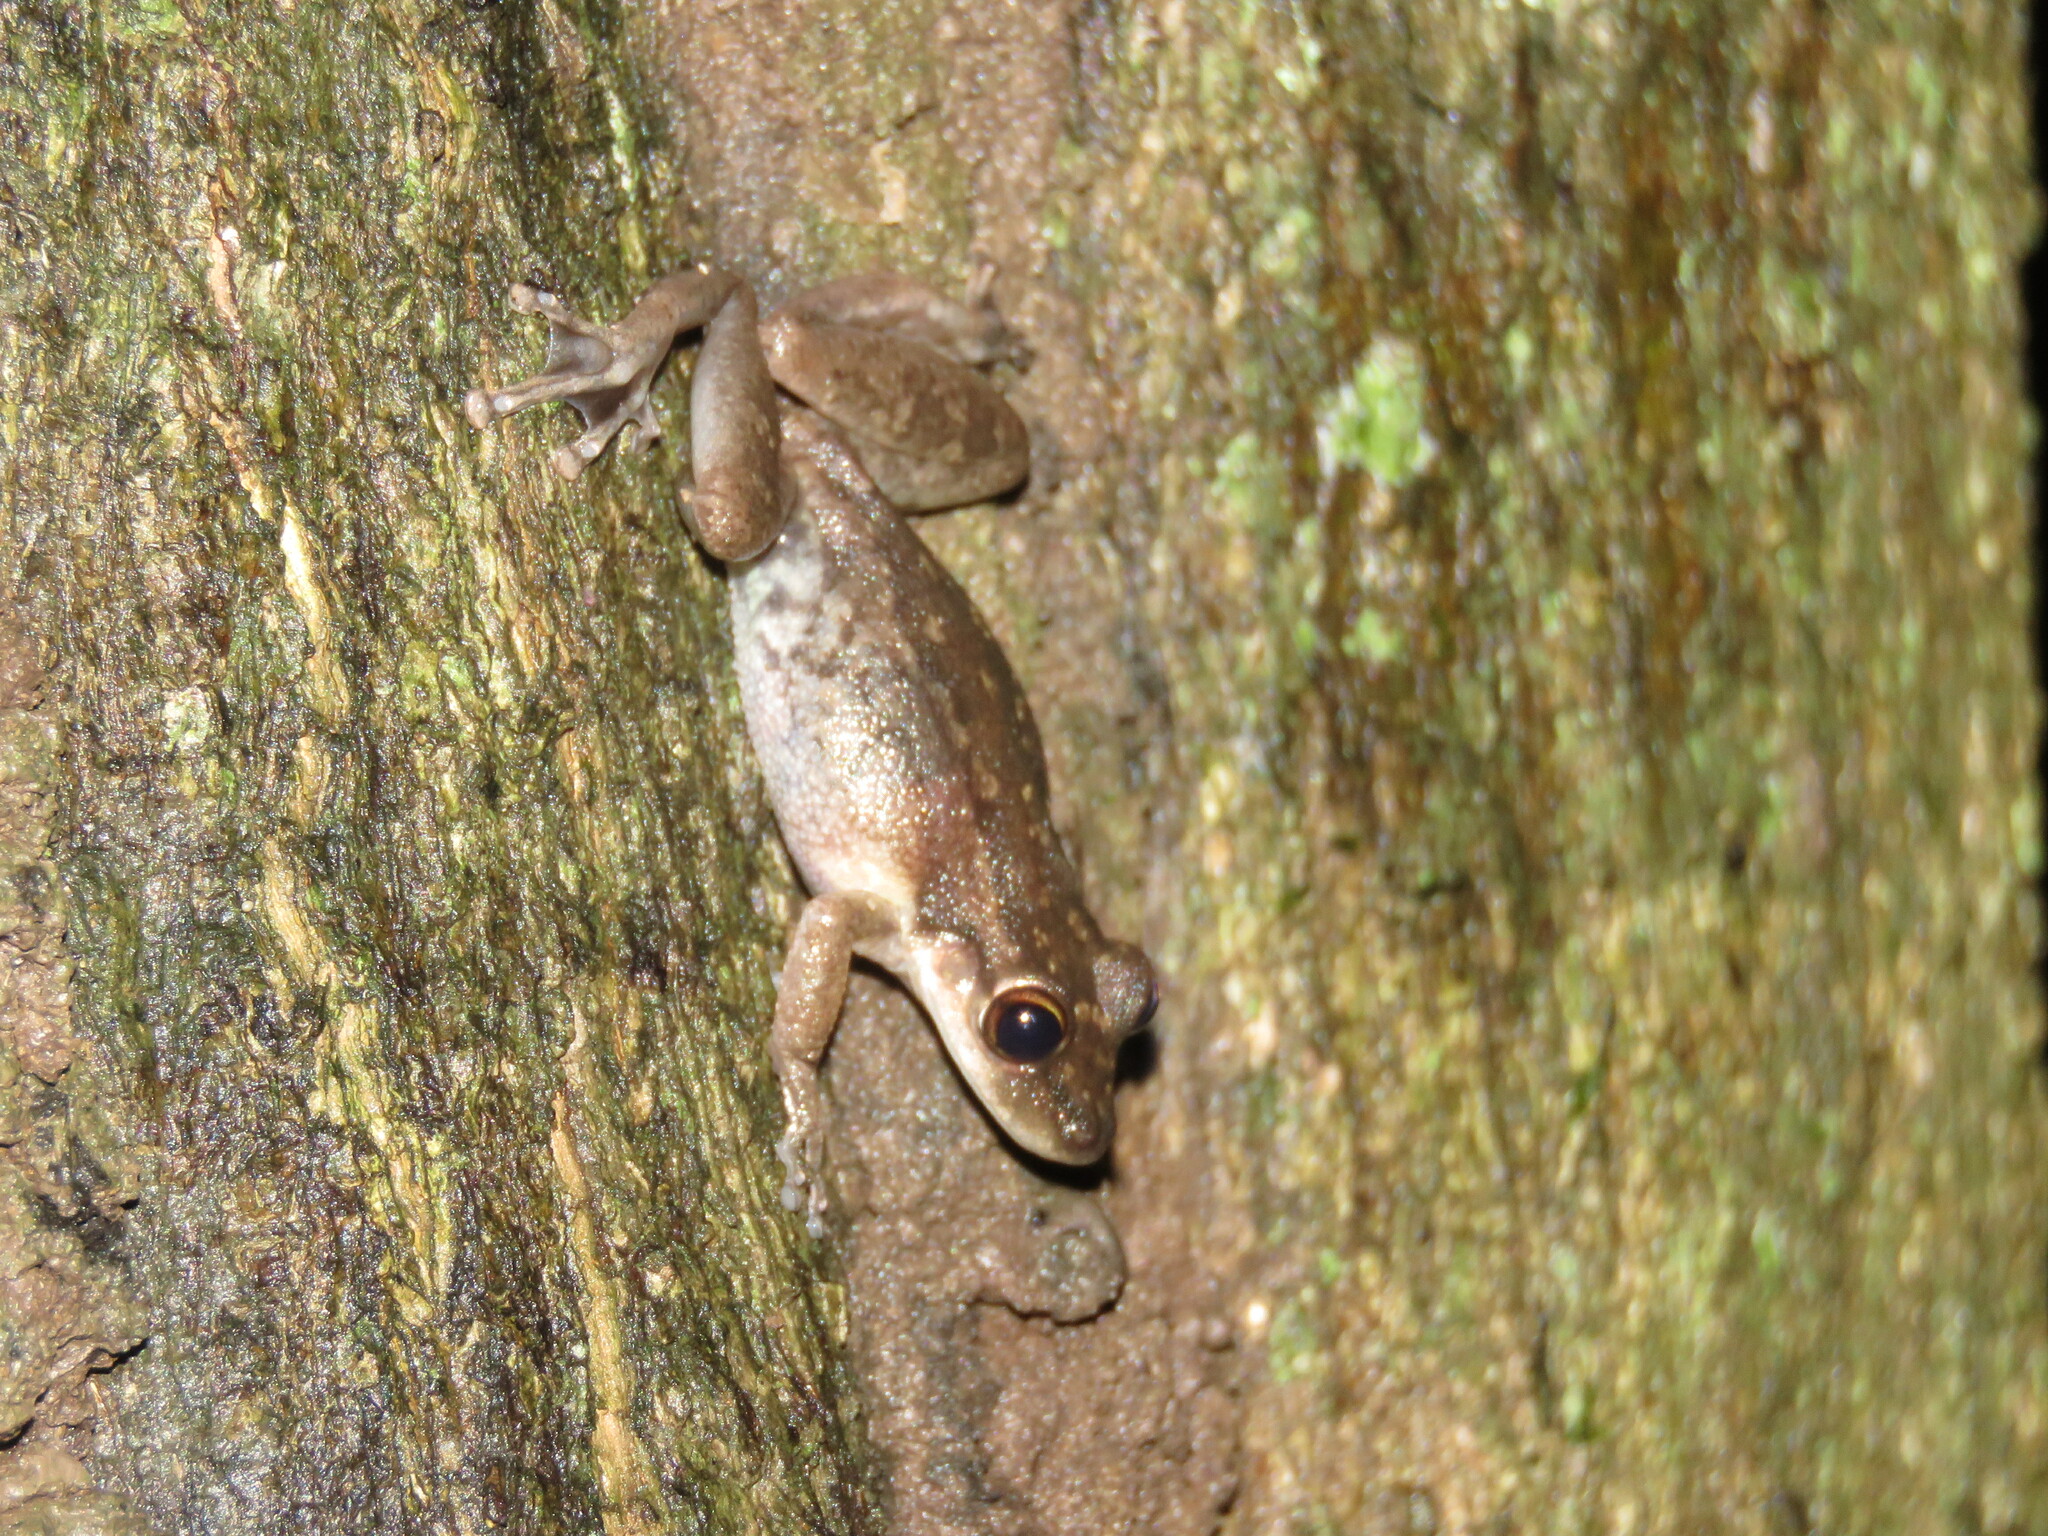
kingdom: Animalia
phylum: Chordata
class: Amphibia
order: Anura
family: Hylidae
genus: Scinax
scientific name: Scinax ruber
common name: Red snouted treefrog
